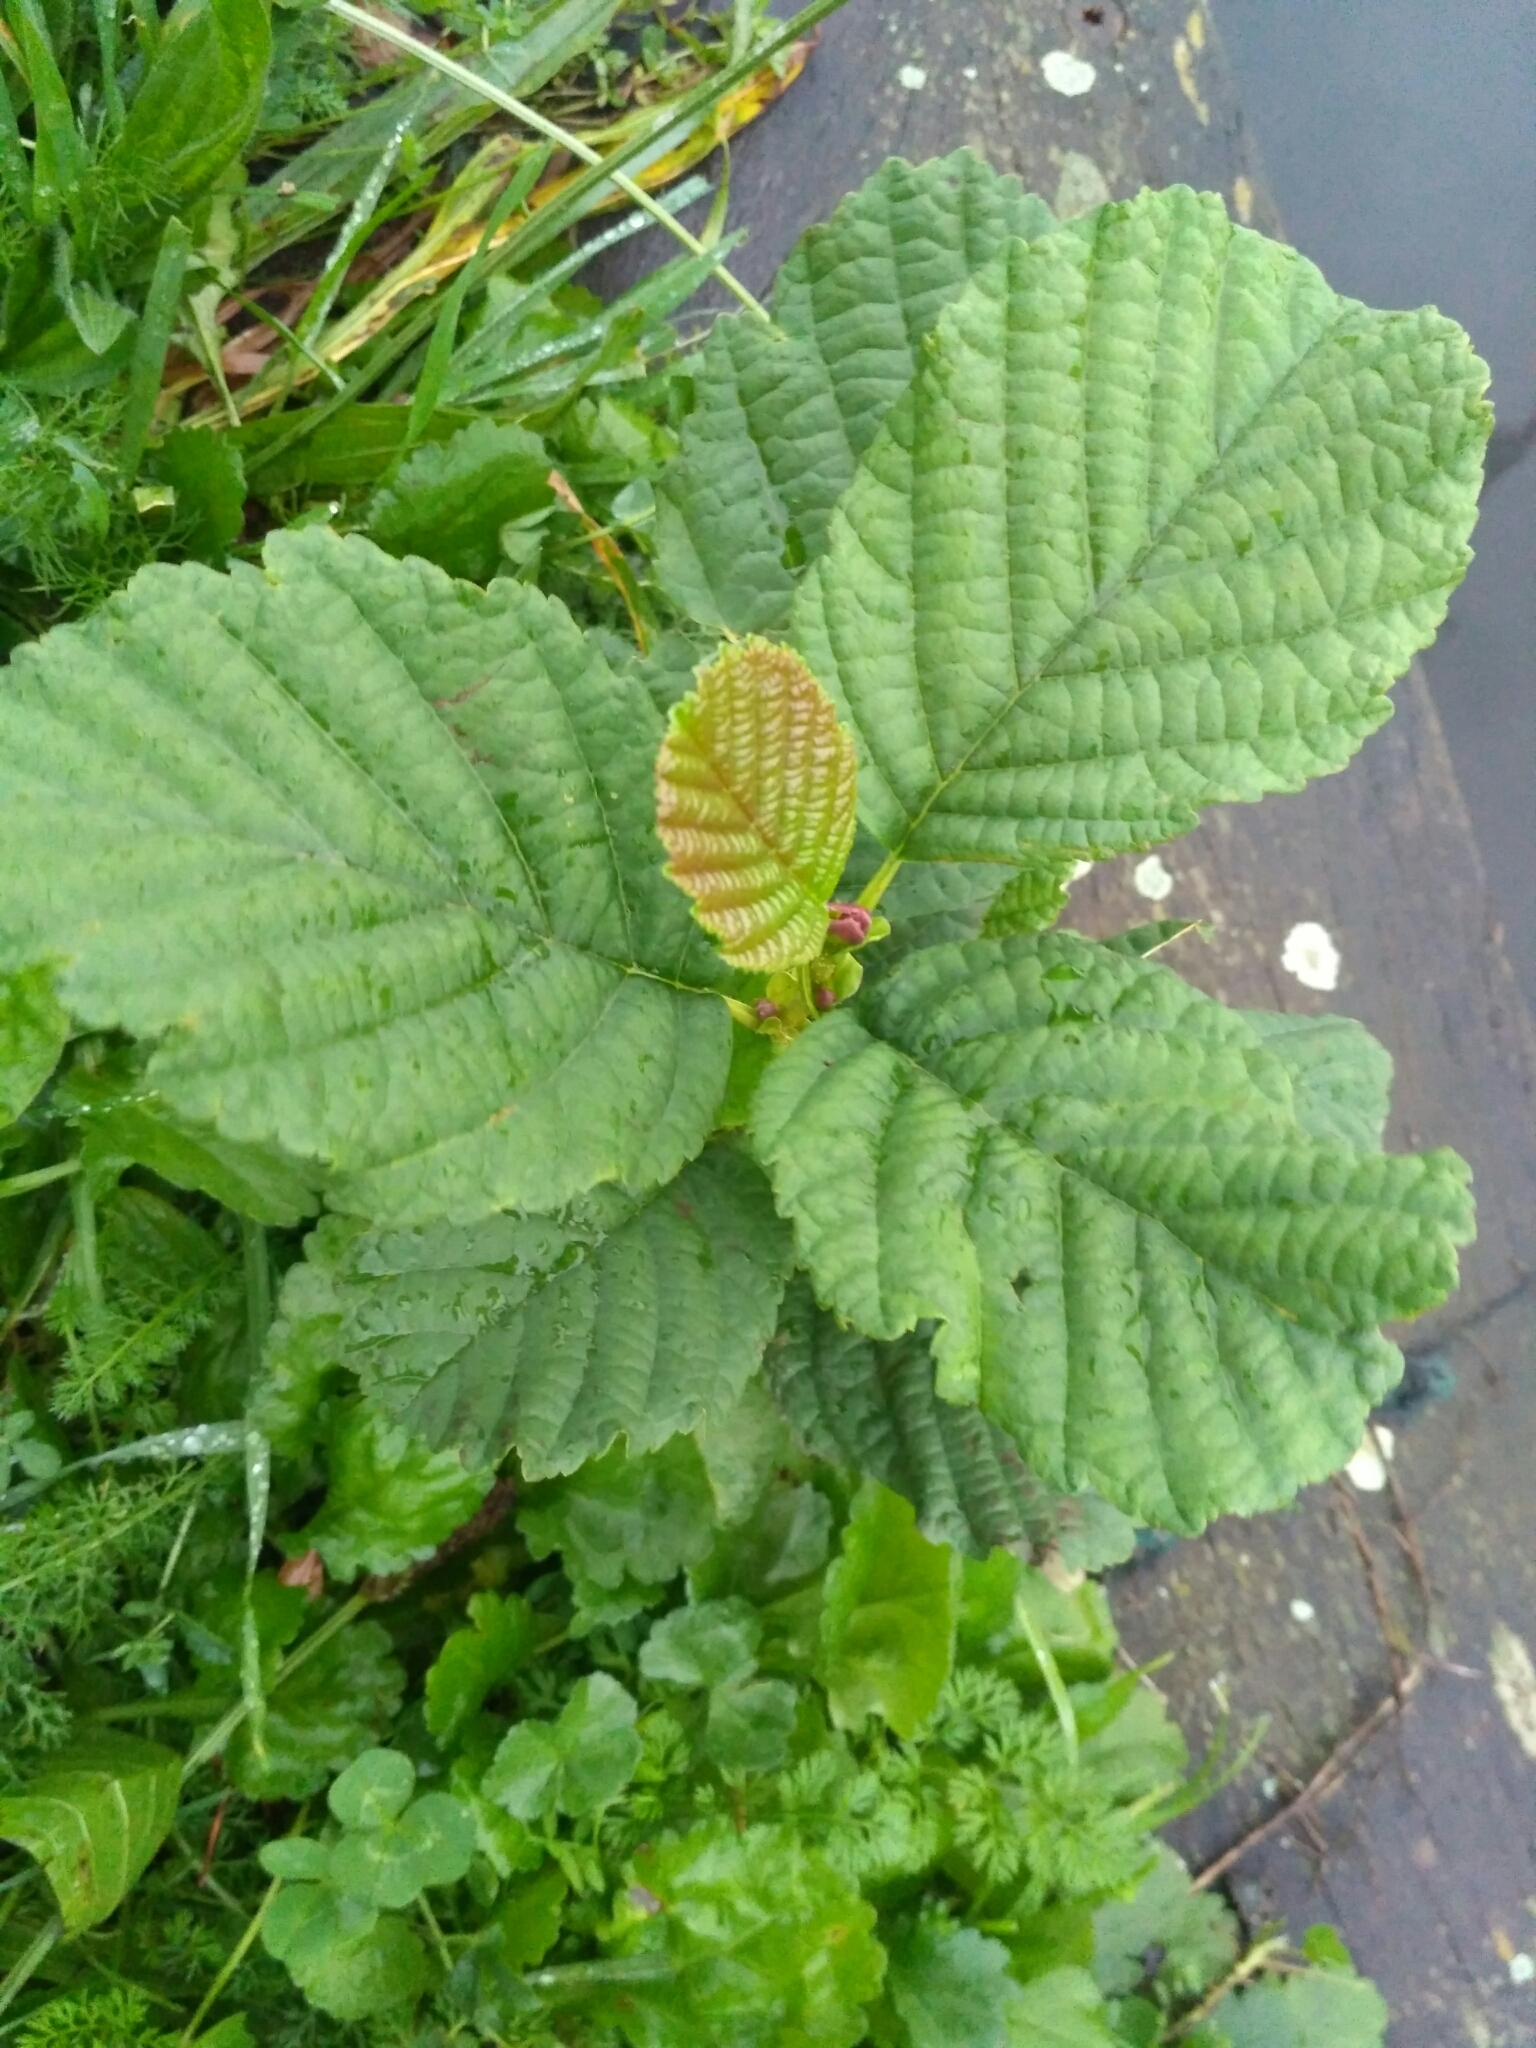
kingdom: Plantae
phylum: Tracheophyta
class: Magnoliopsida
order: Fagales
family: Betulaceae
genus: Alnus
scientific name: Alnus glutinosa
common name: Black alder
